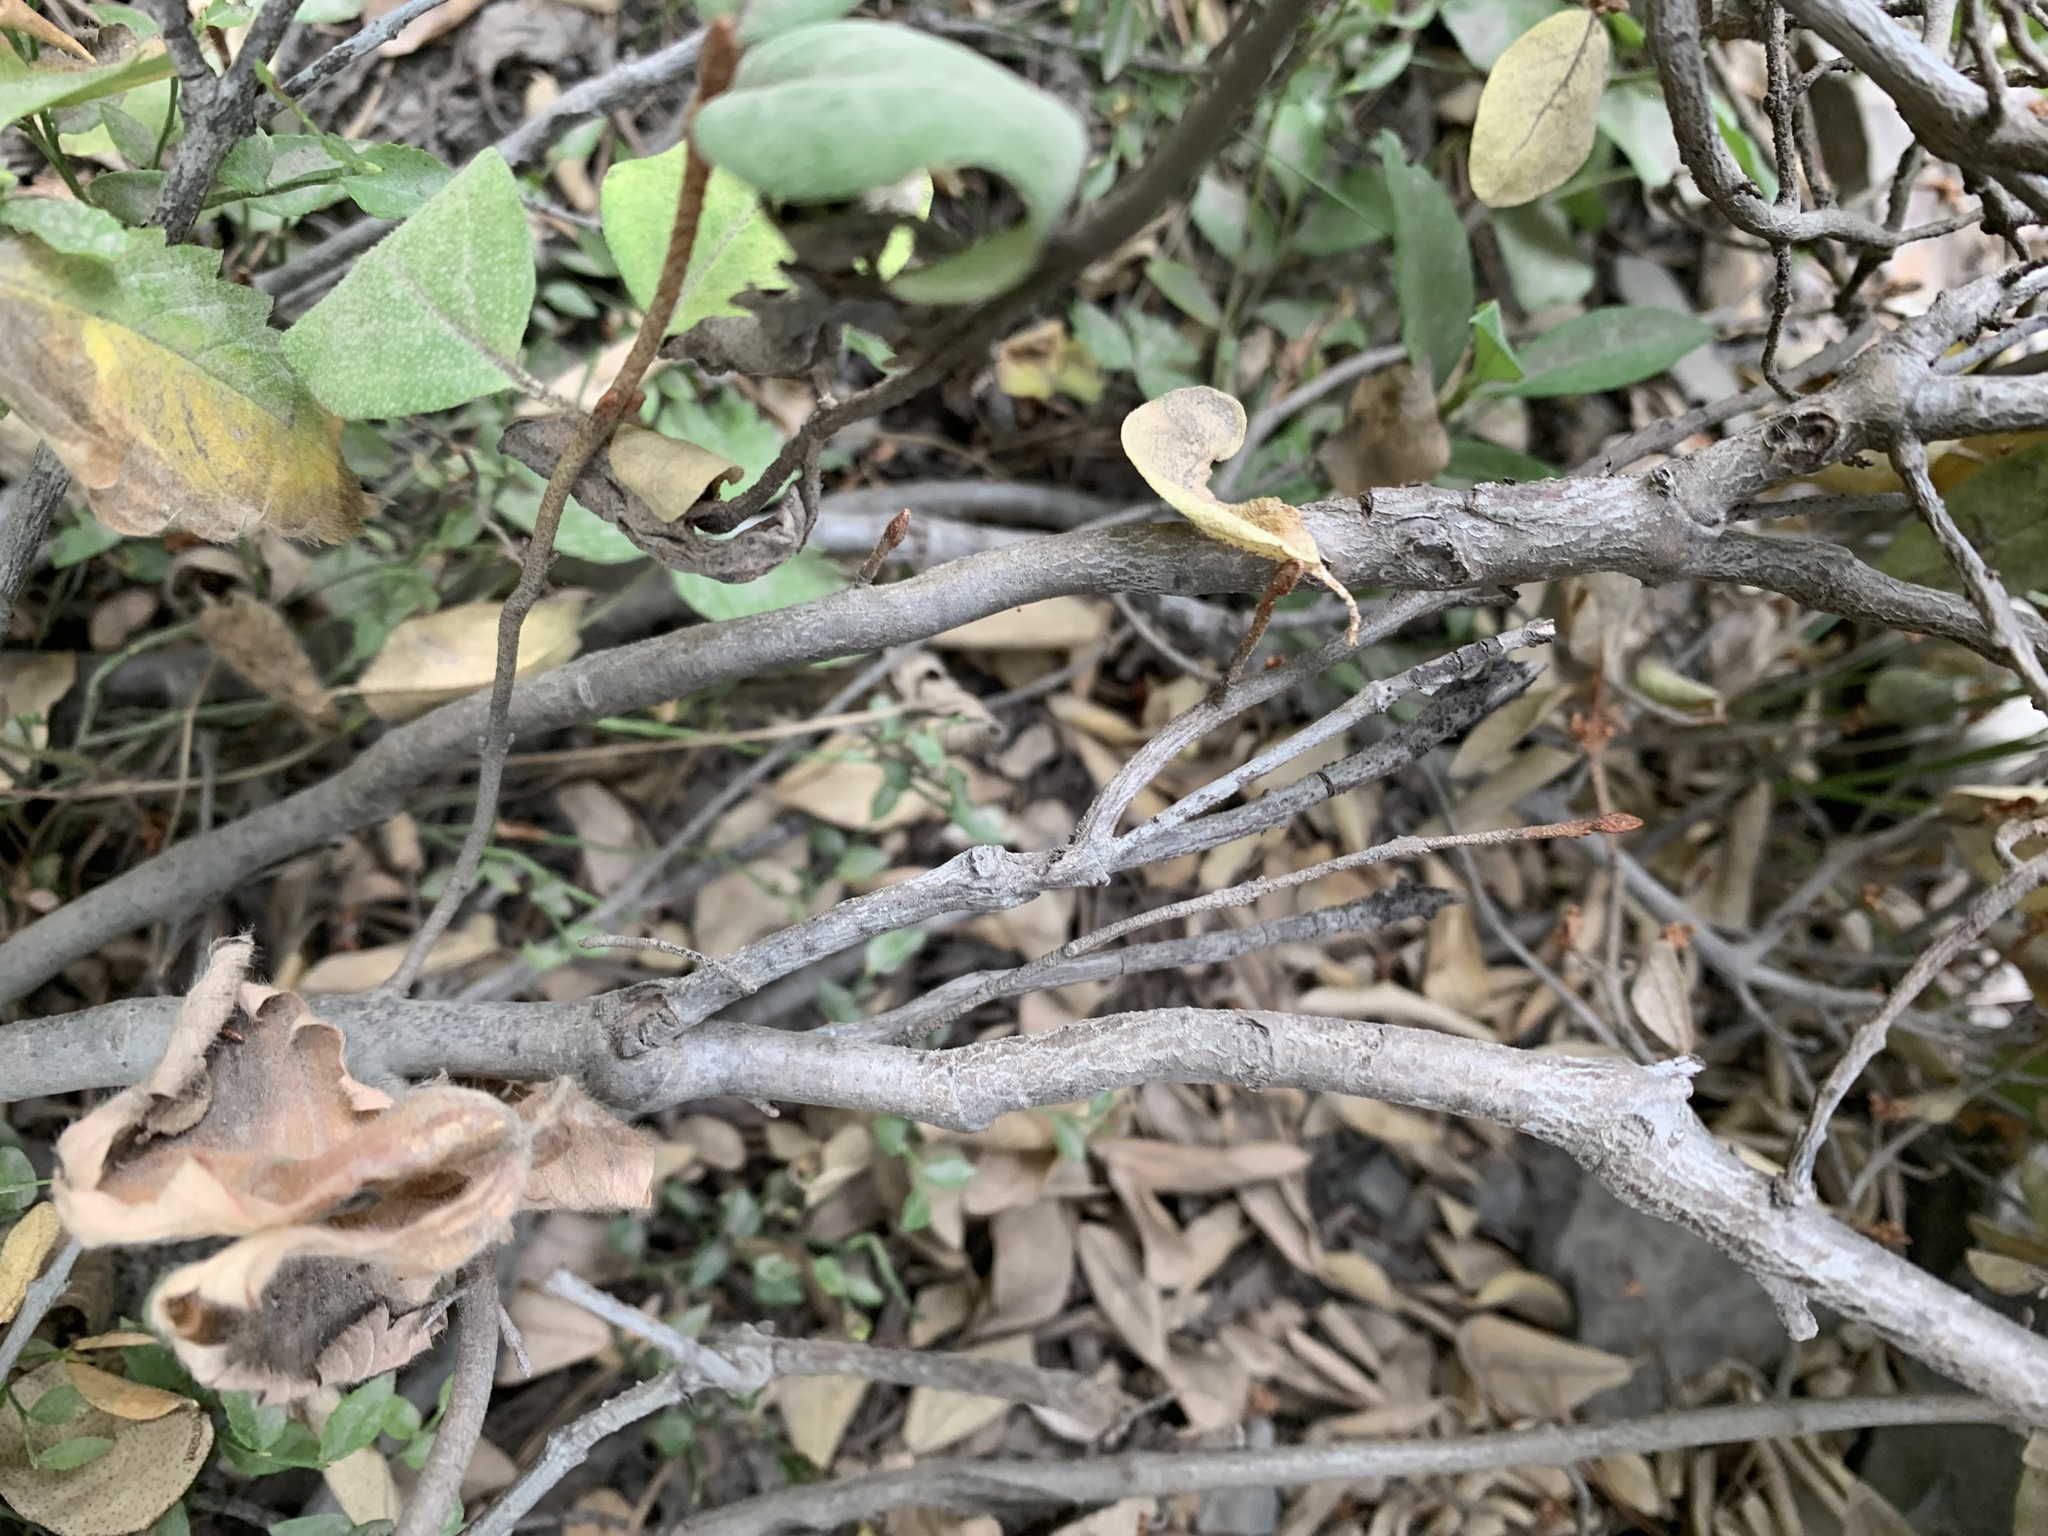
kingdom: Plantae
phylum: Tracheophyta
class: Magnoliopsida
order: Rosales
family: Elaeagnaceae
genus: Shepherdia
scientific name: Shepherdia canadensis
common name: Soapberry
